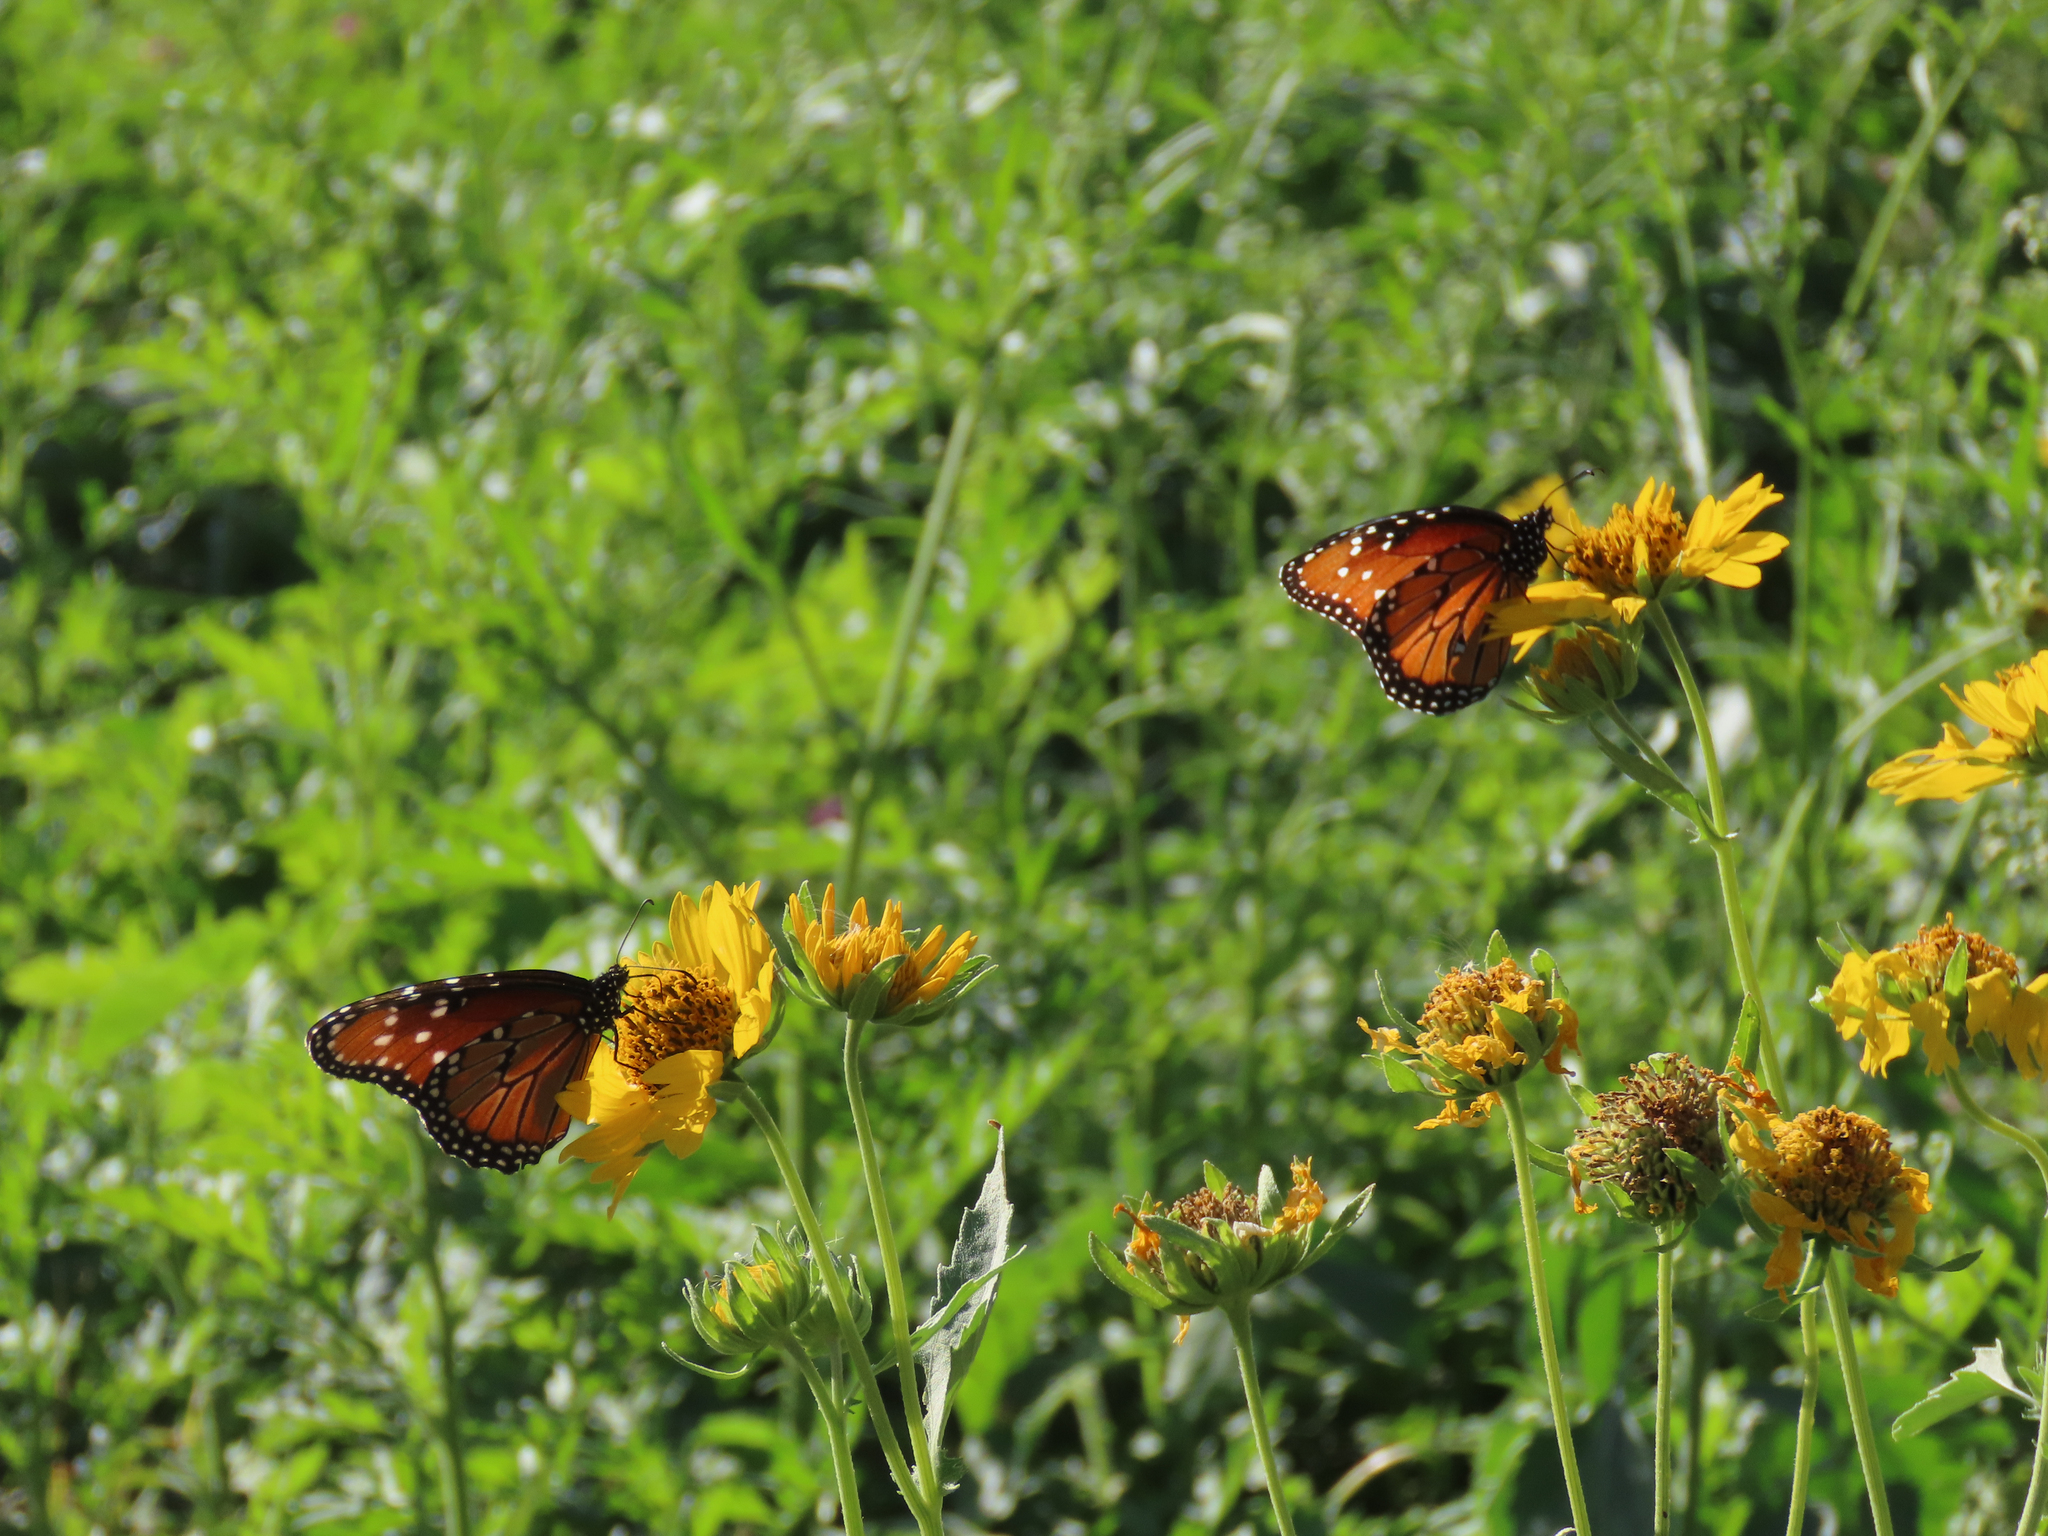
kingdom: Animalia
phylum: Arthropoda
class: Insecta
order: Lepidoptera
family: Nymphalidae
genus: Danaus
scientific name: Danaus gilippus
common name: Queen
